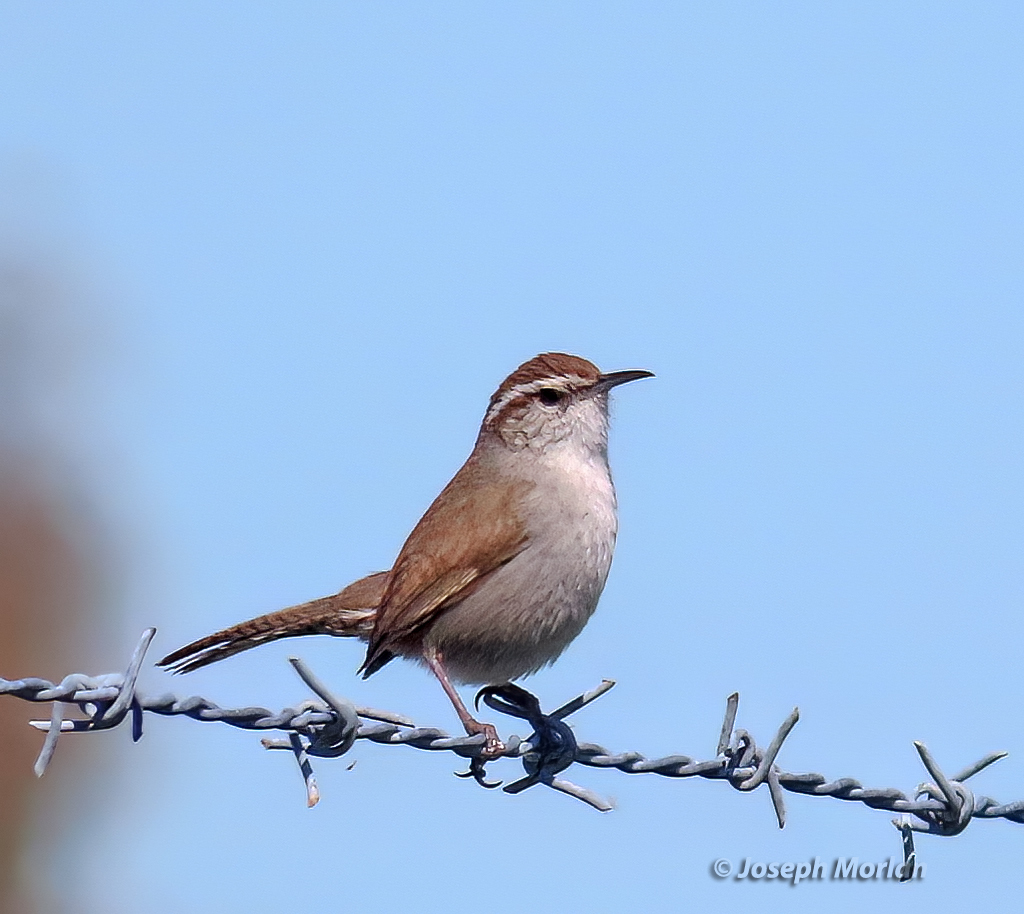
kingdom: Animalia
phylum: Chordata
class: Aves
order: Passeriformes
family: Troglodytidae
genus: Thryomanes
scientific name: Thryomanes bewickii
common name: Bewick's wren
